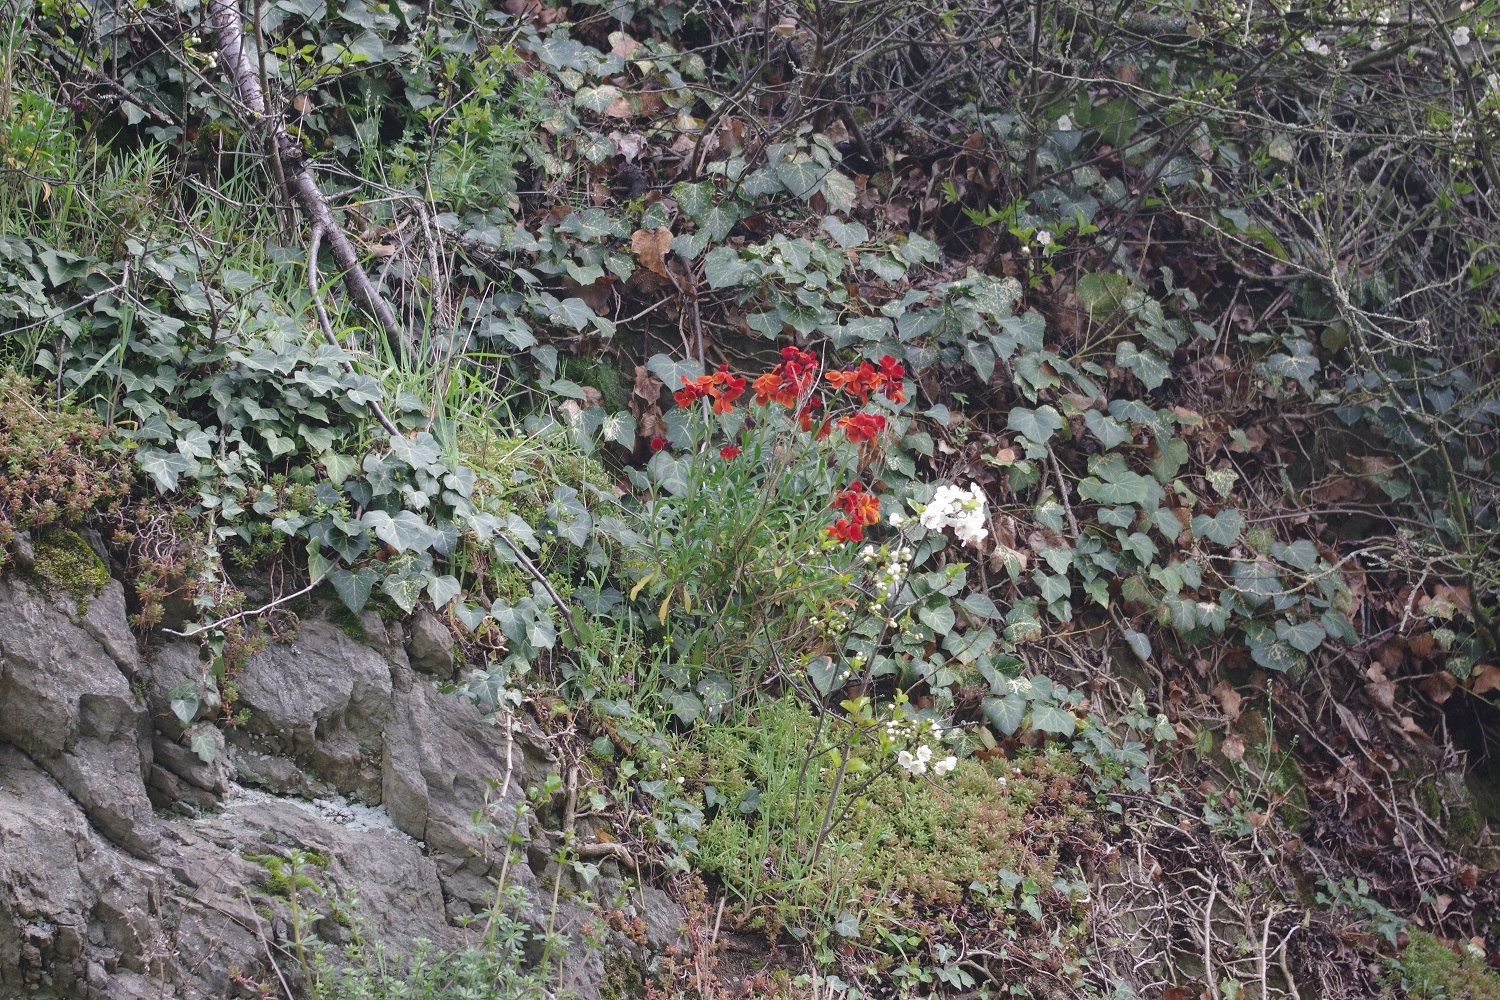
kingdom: Plantae
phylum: Tracheophyta
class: Magnoliopsida
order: Brassicales
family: Brassicaceae
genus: Erysimum
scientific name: Erysimum cheiri
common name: Wallflower
